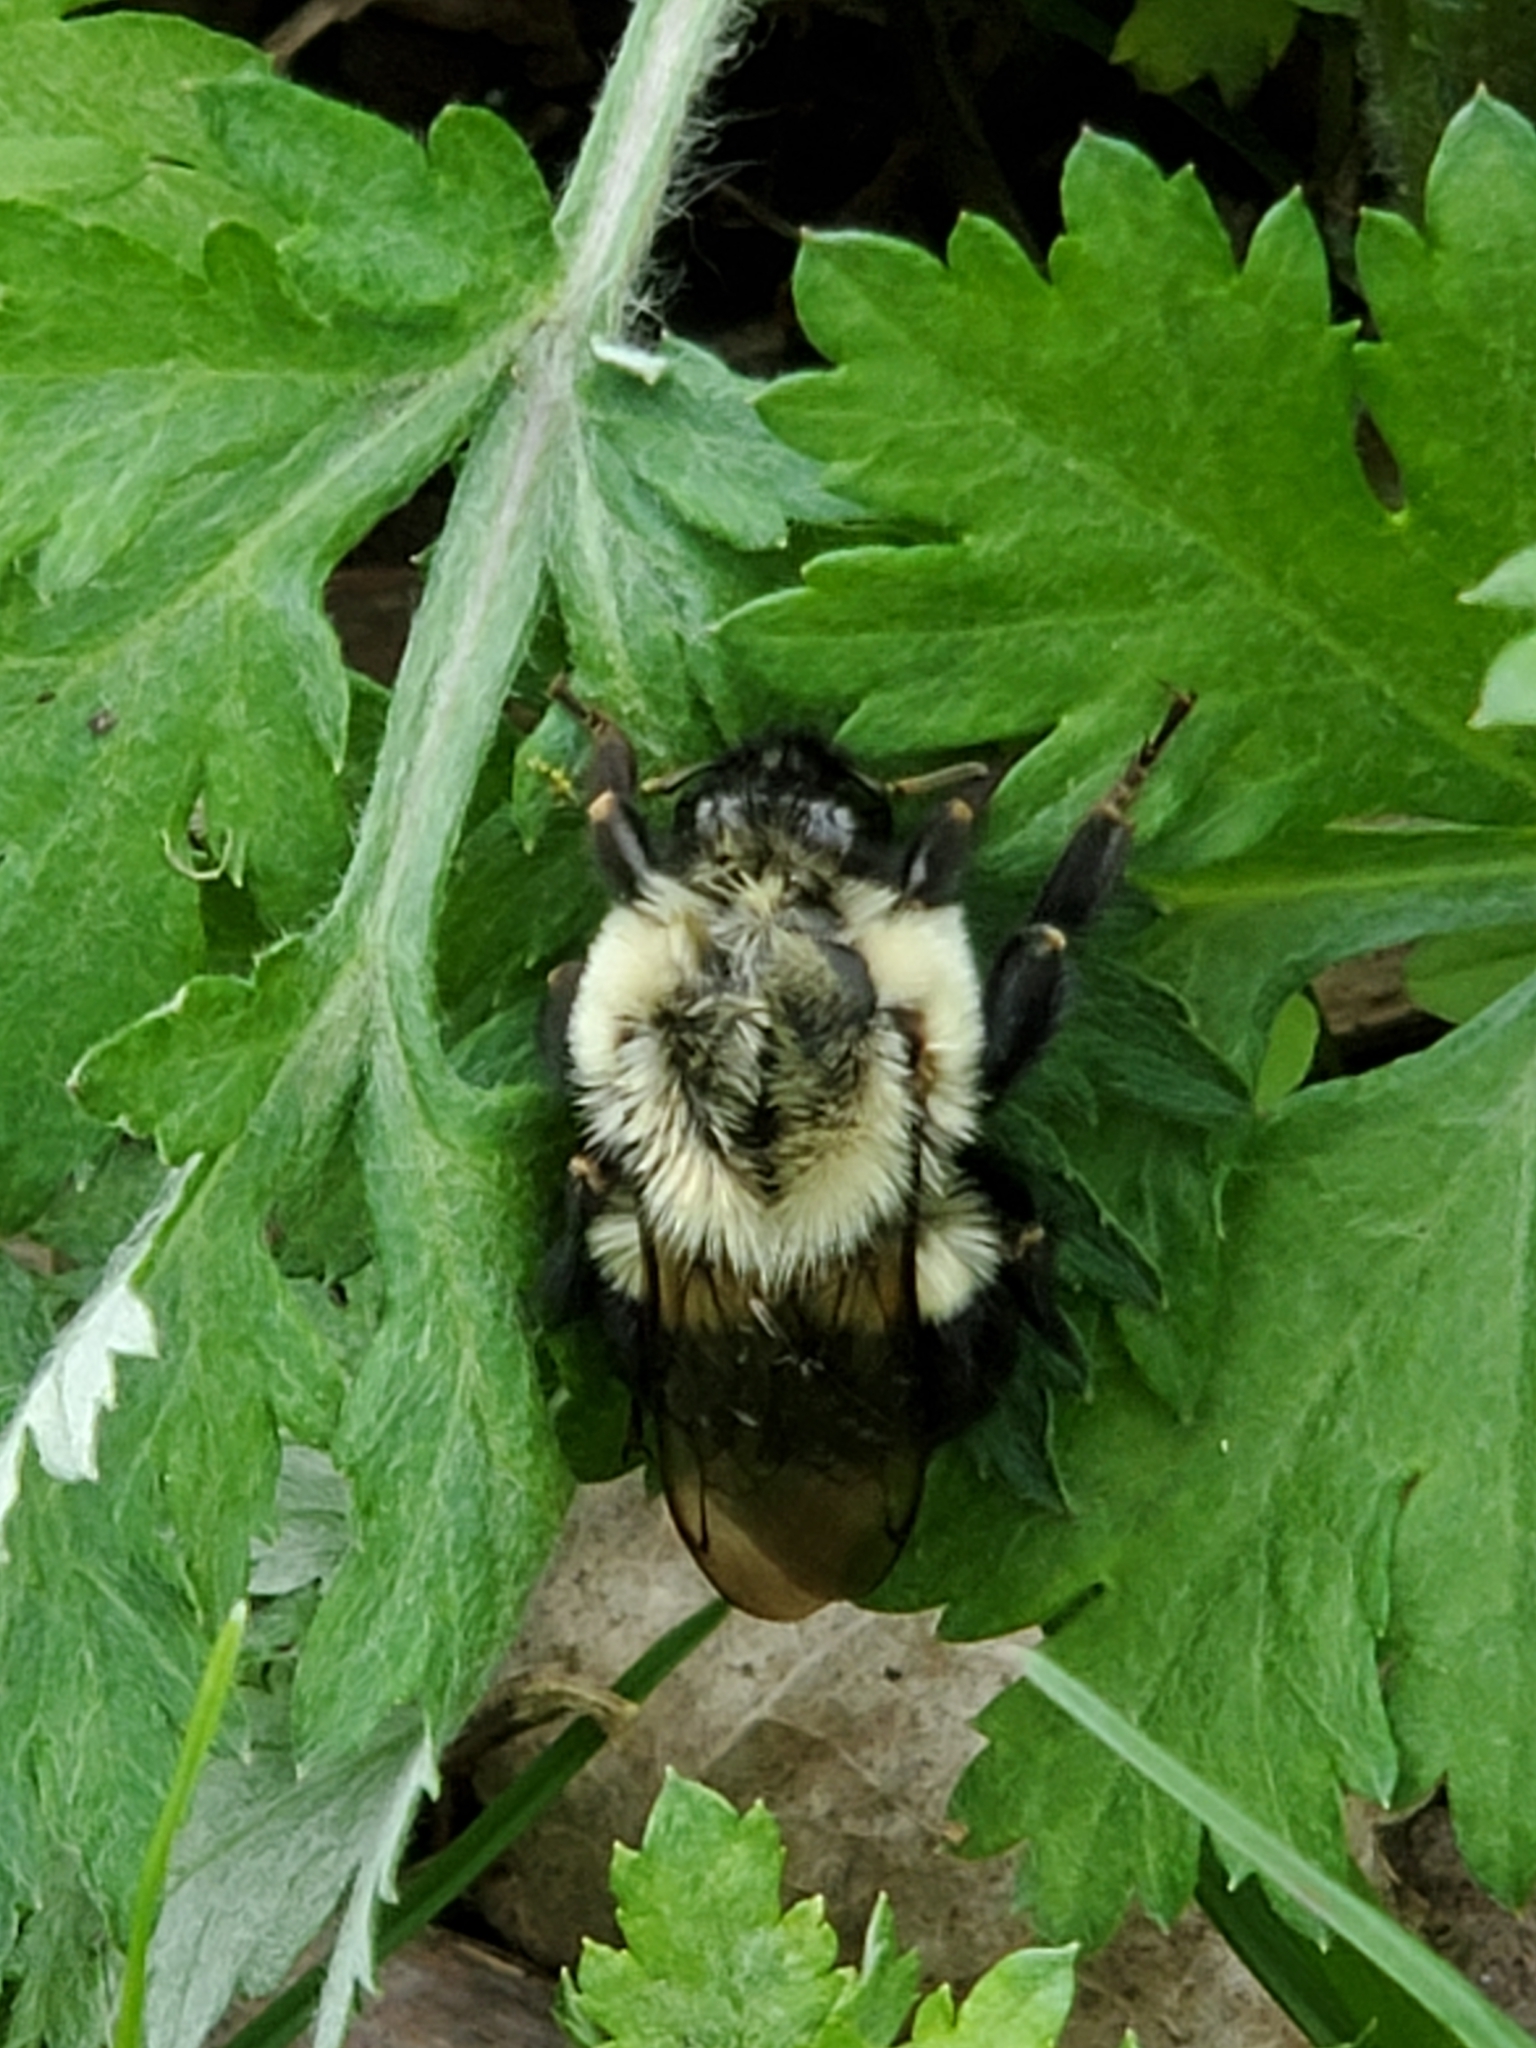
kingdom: Animalia
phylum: Arthropoda
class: Insecta
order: Hymenoptera
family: Apidae
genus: Bombus
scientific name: Bombus impatiens
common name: Common eastern bumble bee
